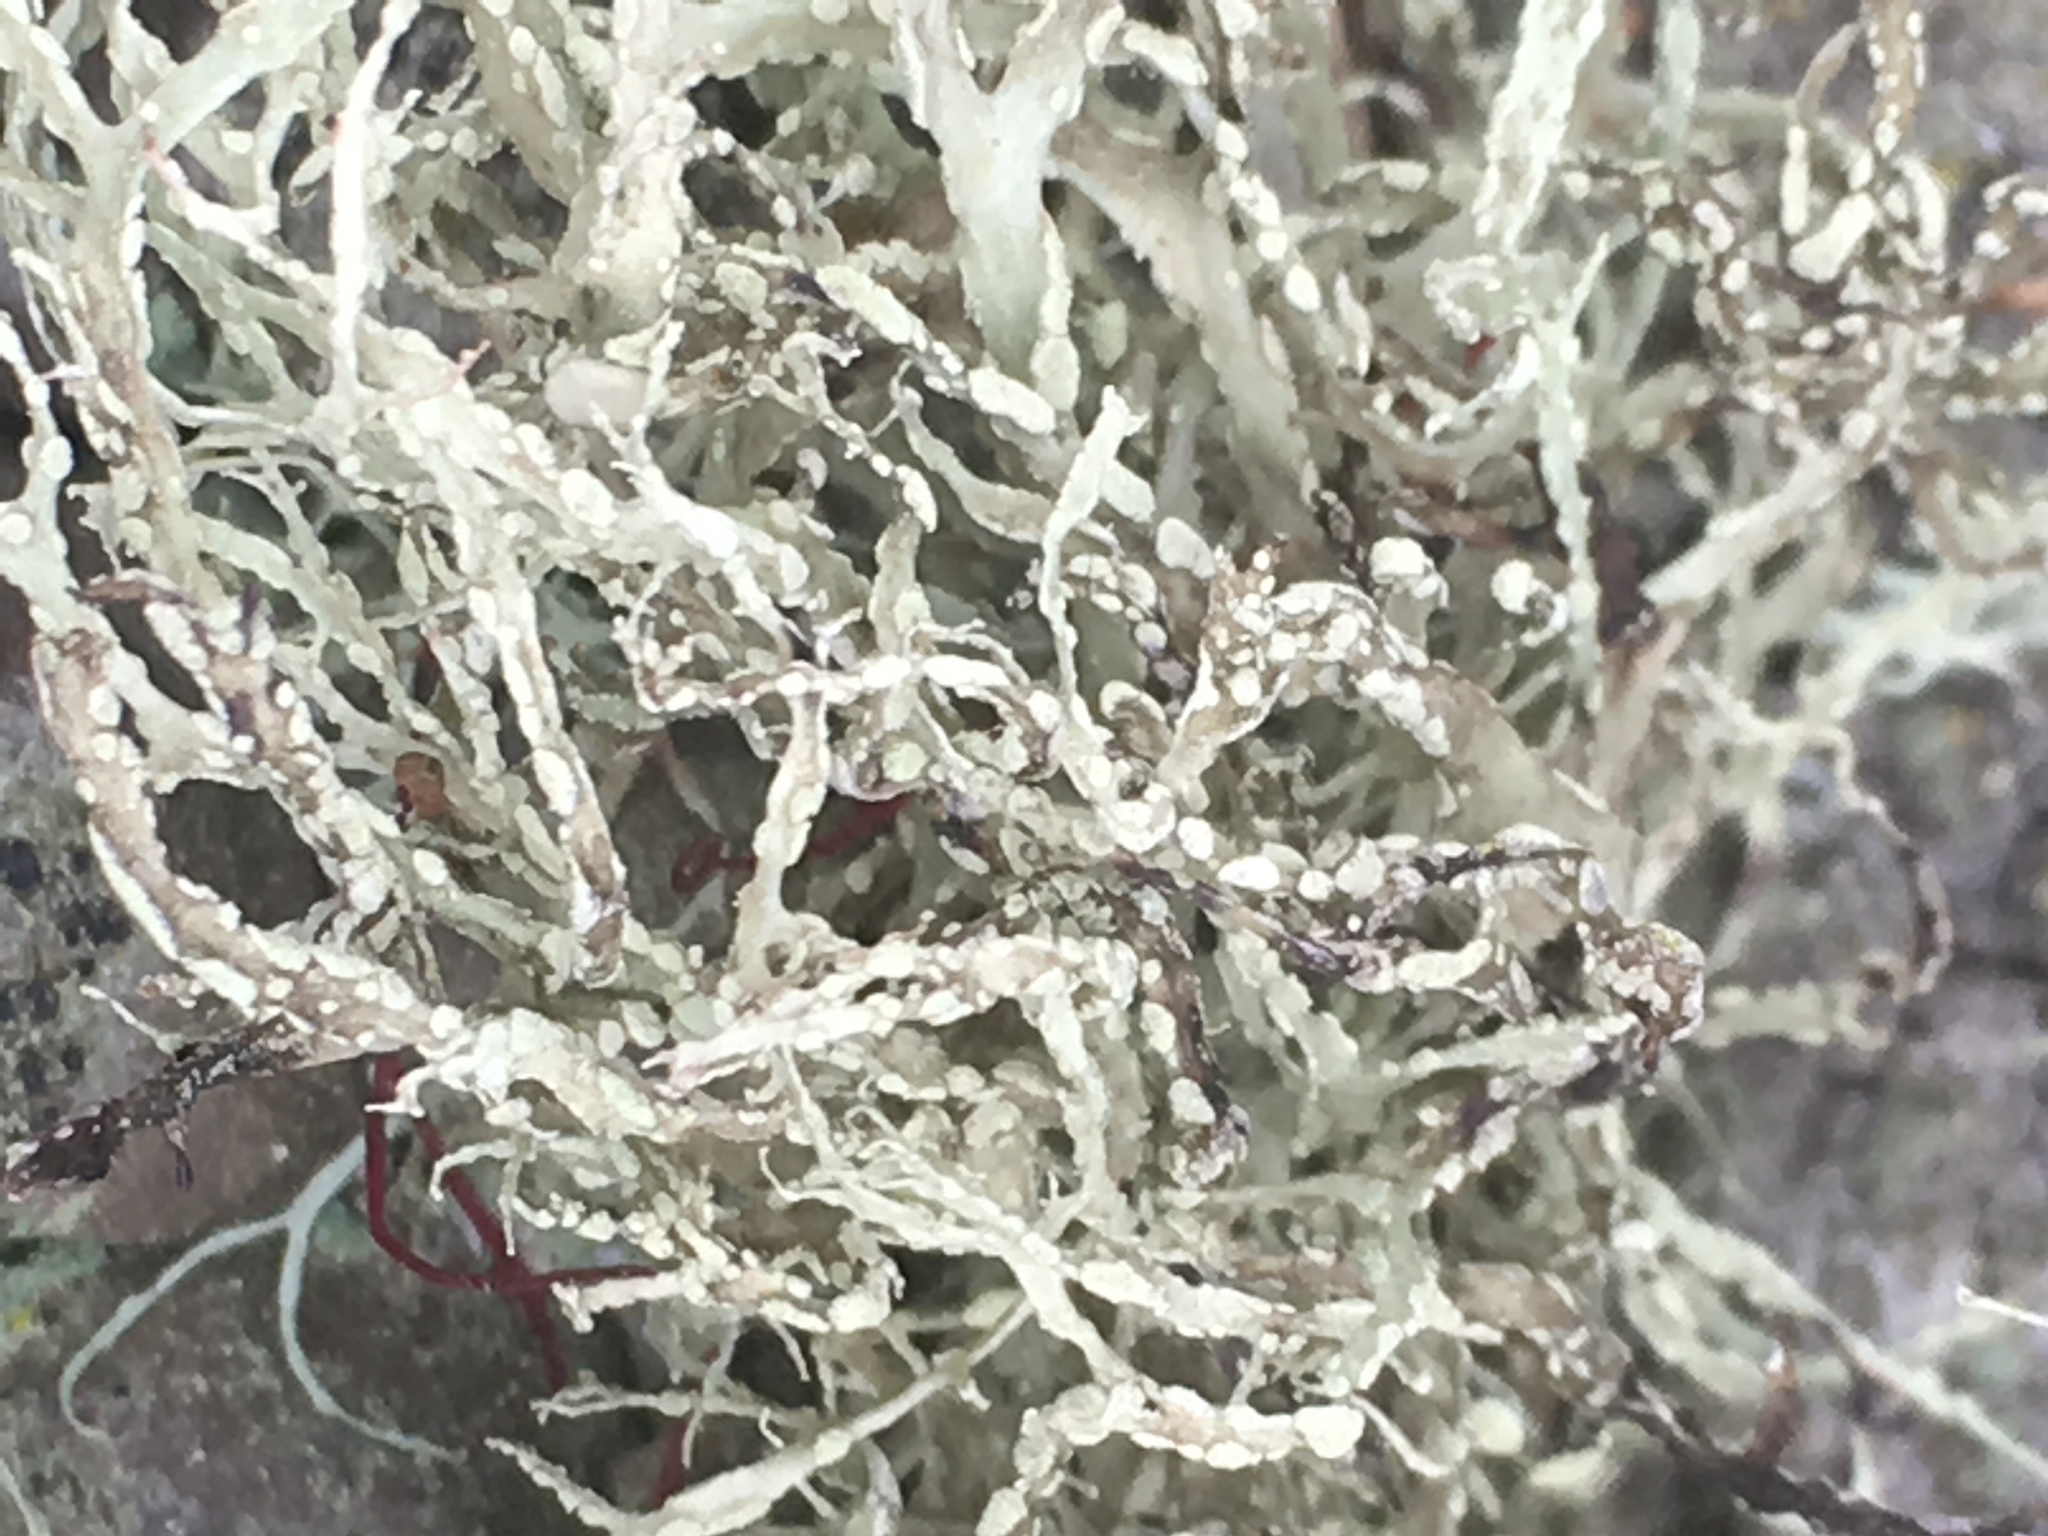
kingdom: Fungi
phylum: Ascomycota
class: Lecanoromycetes
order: Lecanorales
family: Ramalinaceae
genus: Ramalina
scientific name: Ramalina farinacea
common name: Farinose cartilage lichen
